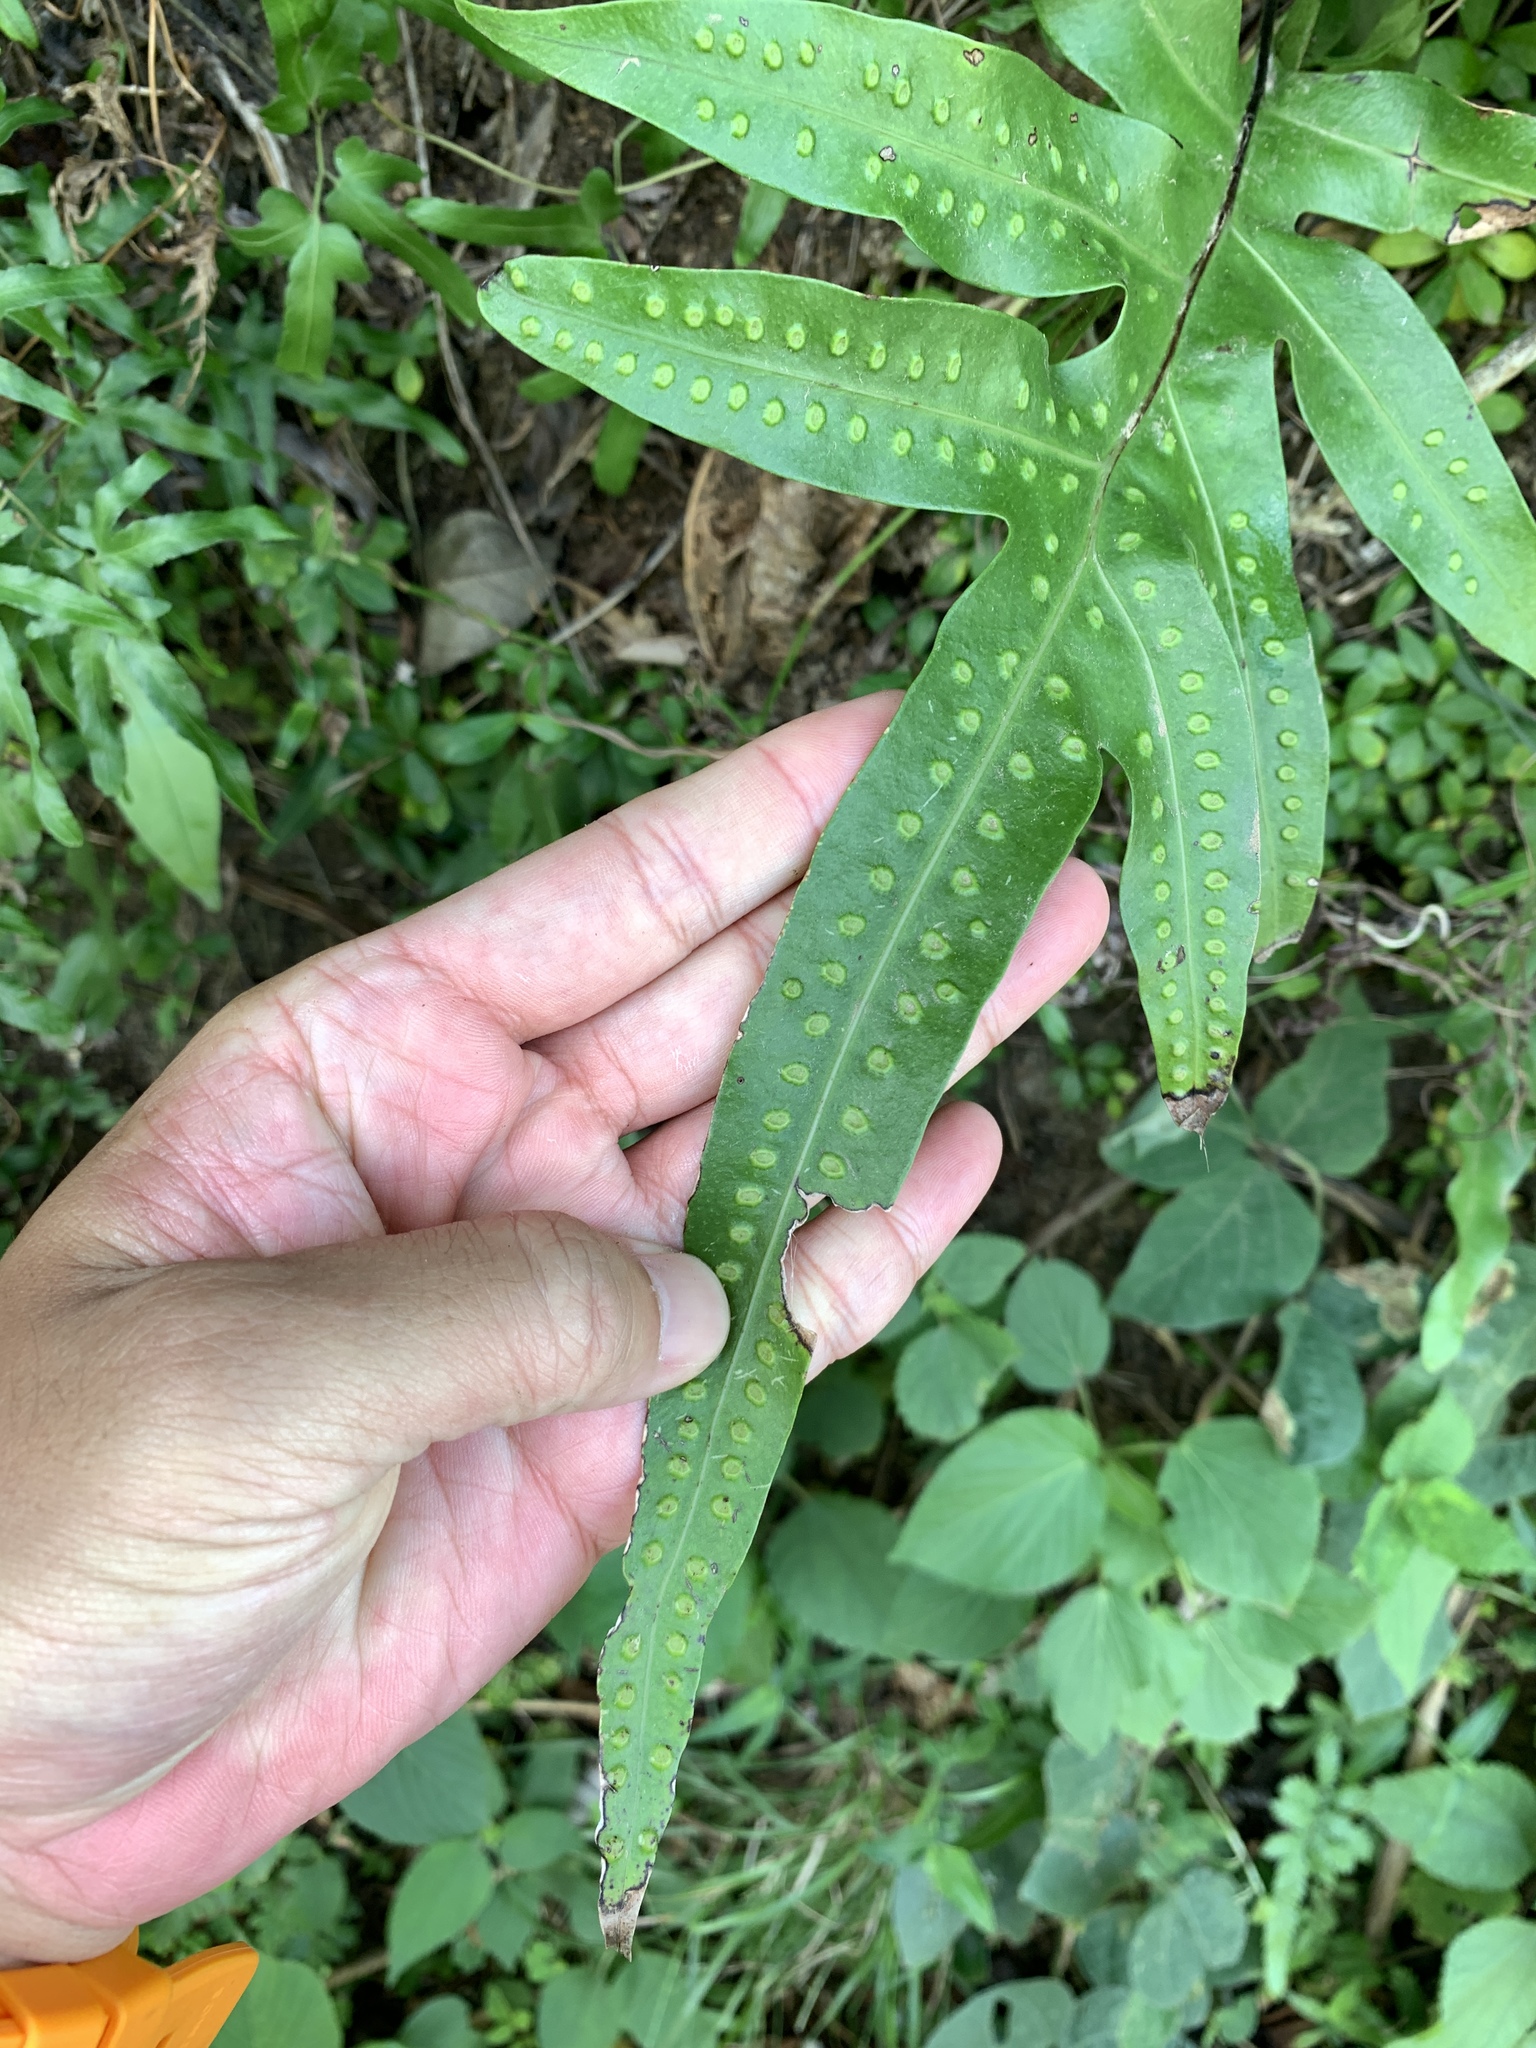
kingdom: Plantae
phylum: Tracheophyta
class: Polypodiopsida
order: Polypodiales
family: Polypodiaceae
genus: Microsorum
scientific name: Microsorum scolopendria
